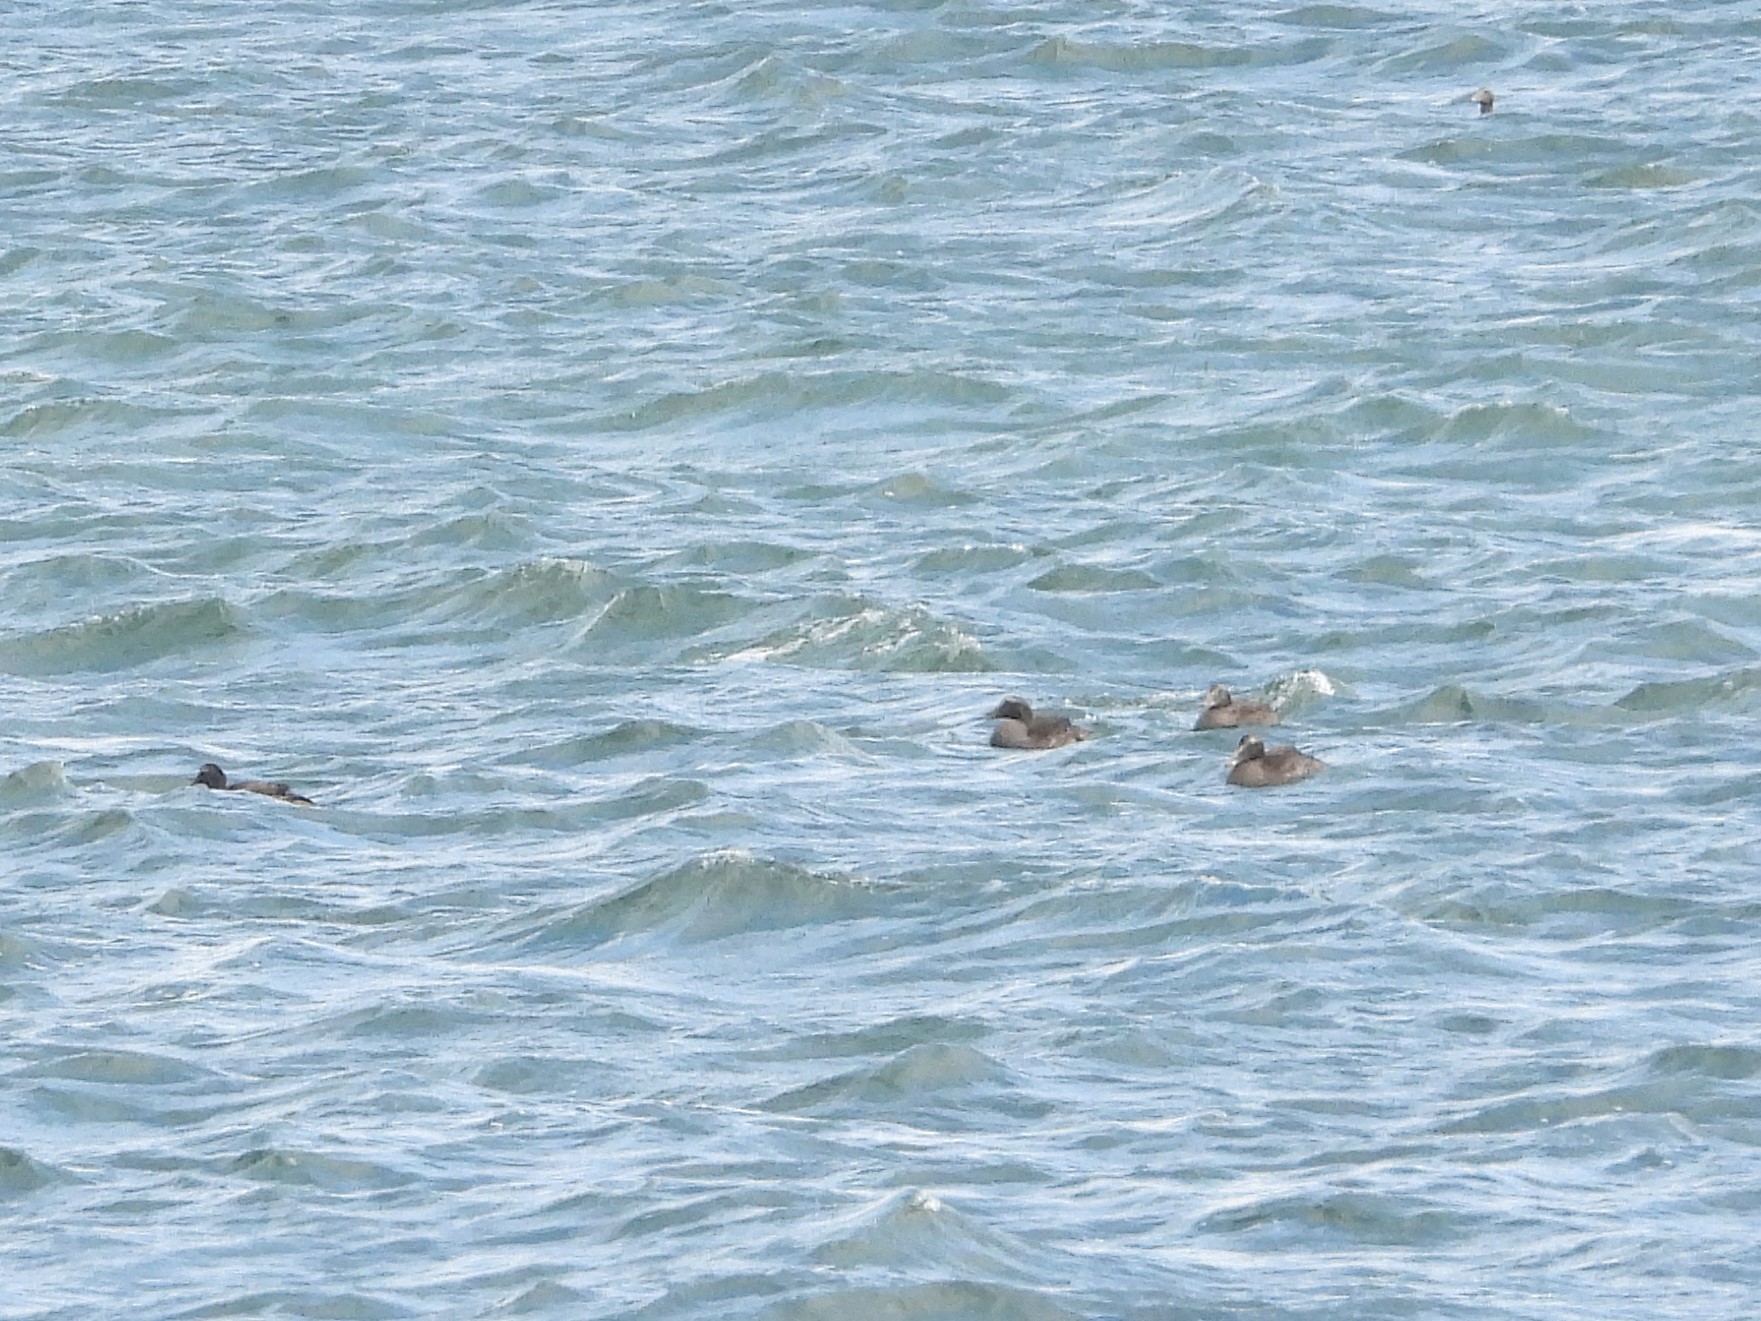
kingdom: Animalia
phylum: Chordata
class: Aves
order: Anseriformes
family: Anatidae
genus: Somateria
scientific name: Somateria mollissima
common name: Common eider
